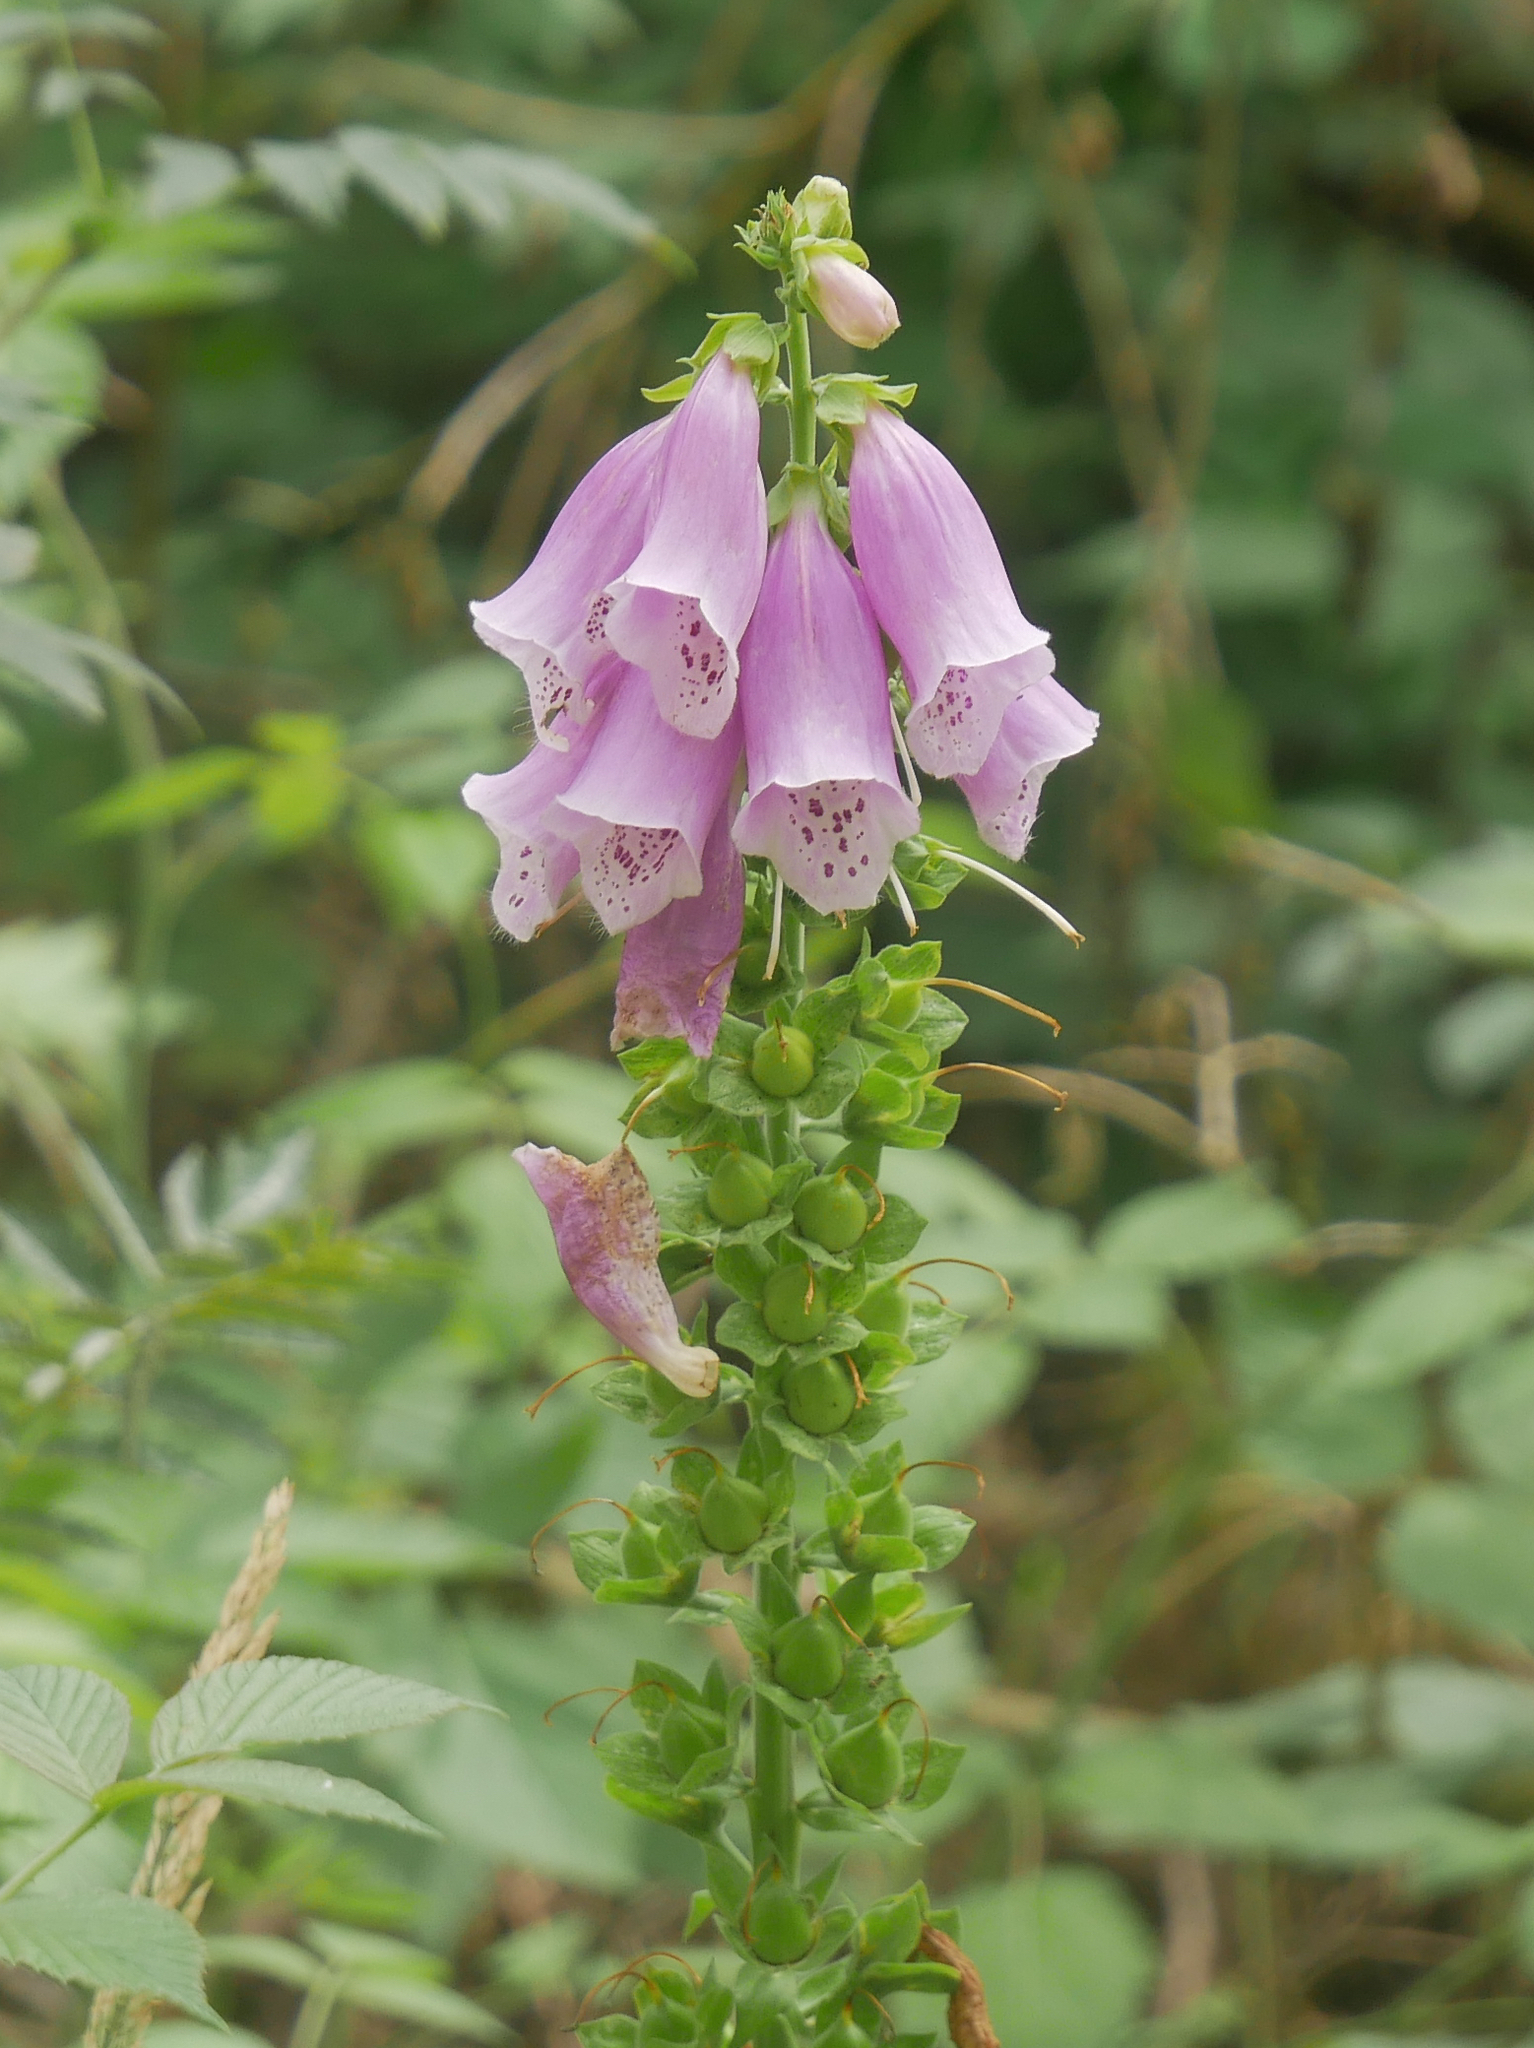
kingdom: Plantae
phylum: Tracheophyta
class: Magnoliopsida
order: Lamiales
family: Plantaginaceae
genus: Digitalis
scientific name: Digitalis purpurea
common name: Foxglove
